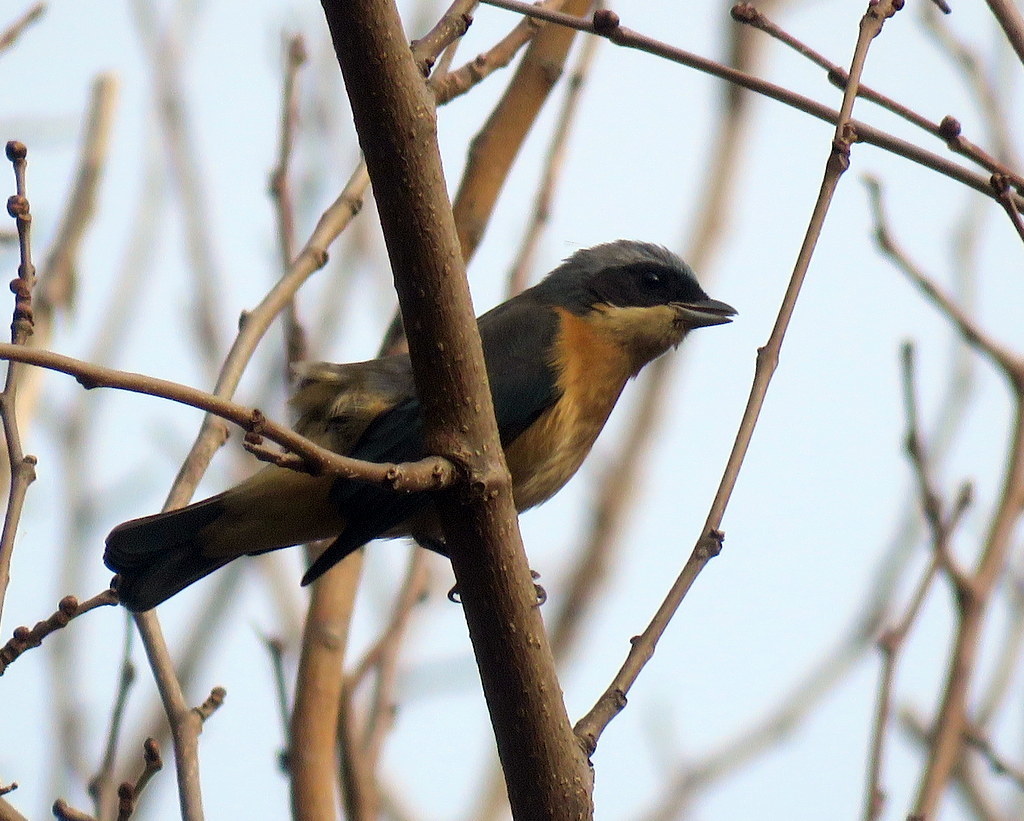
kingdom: Animalia
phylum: Chordata
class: Aves
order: Passeriformes
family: Thraupidae
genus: Pipraeidea
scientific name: Pipraeidea melanonota
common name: Fawn-breasted tanager
